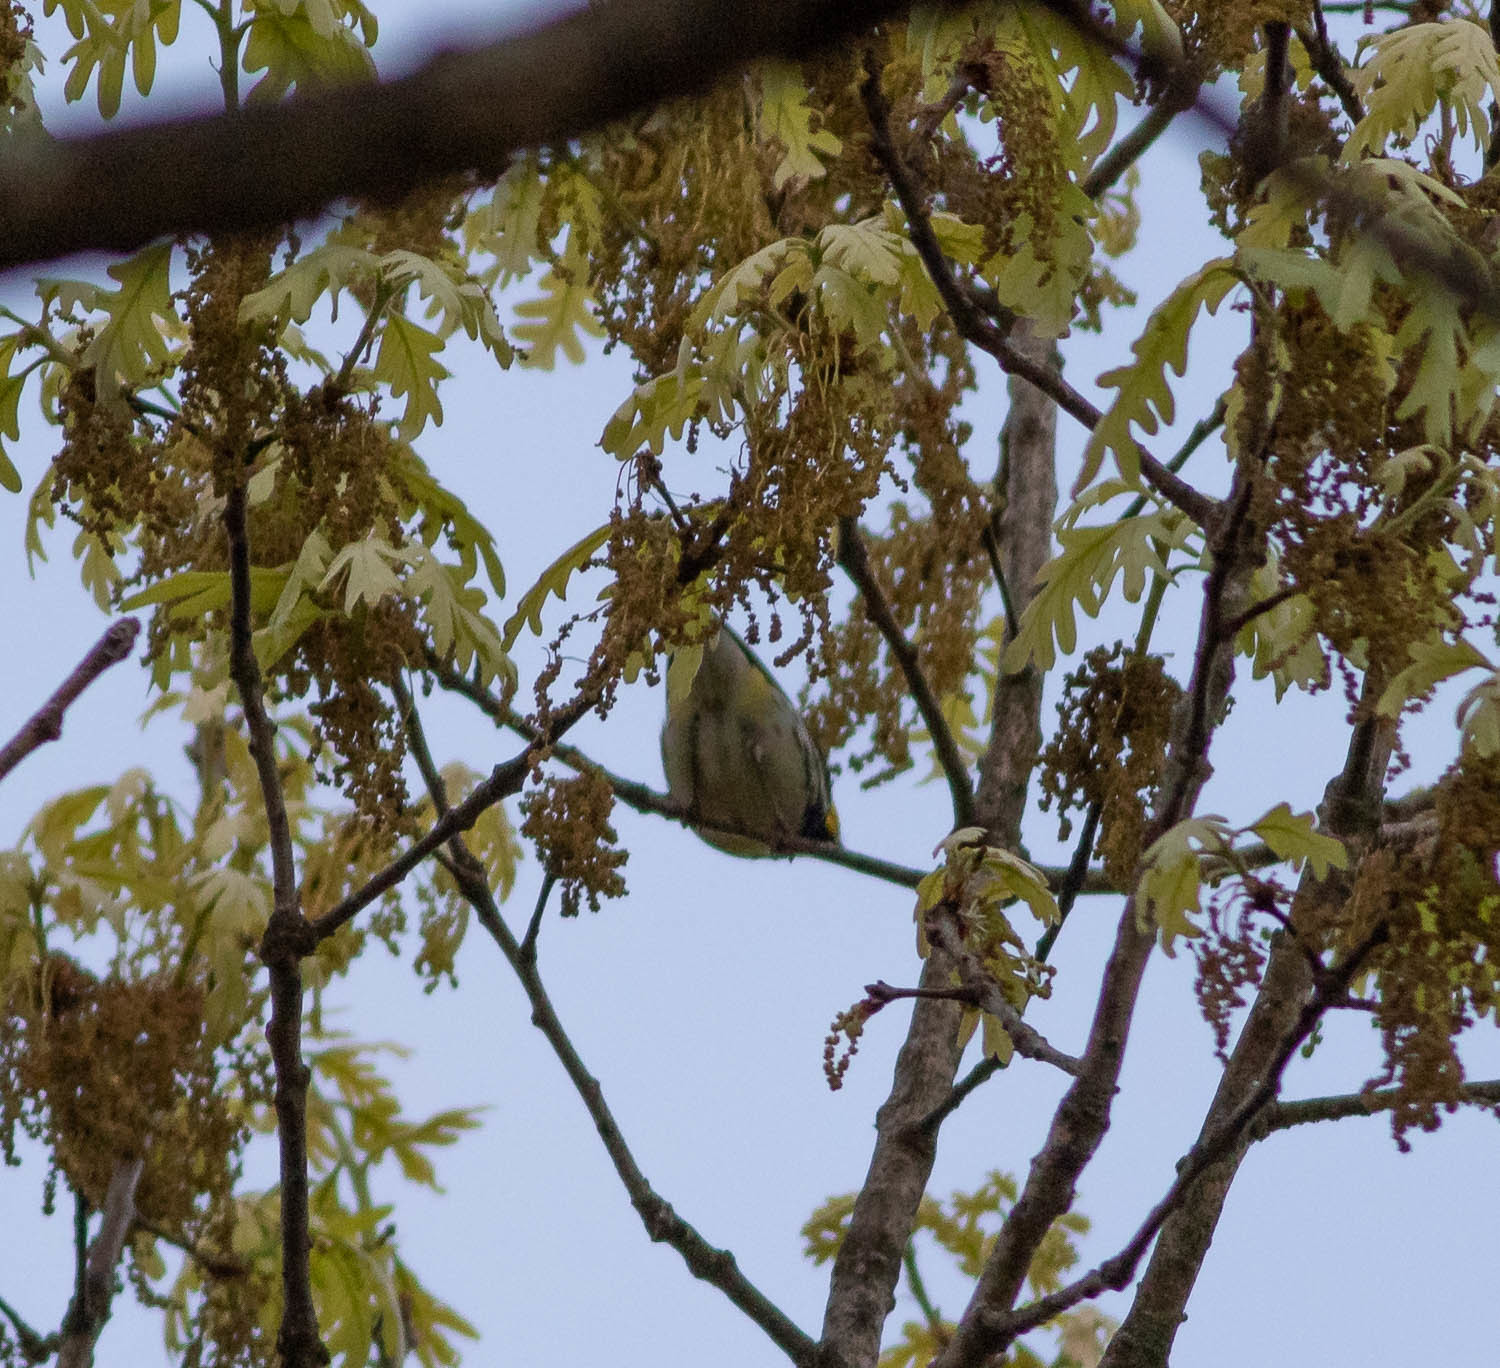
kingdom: Animalia
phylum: Chordata
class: Aves
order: Passeriformes
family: Parulidae
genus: Setophaga
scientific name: Setophaga virens
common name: Black-throated green warbler
